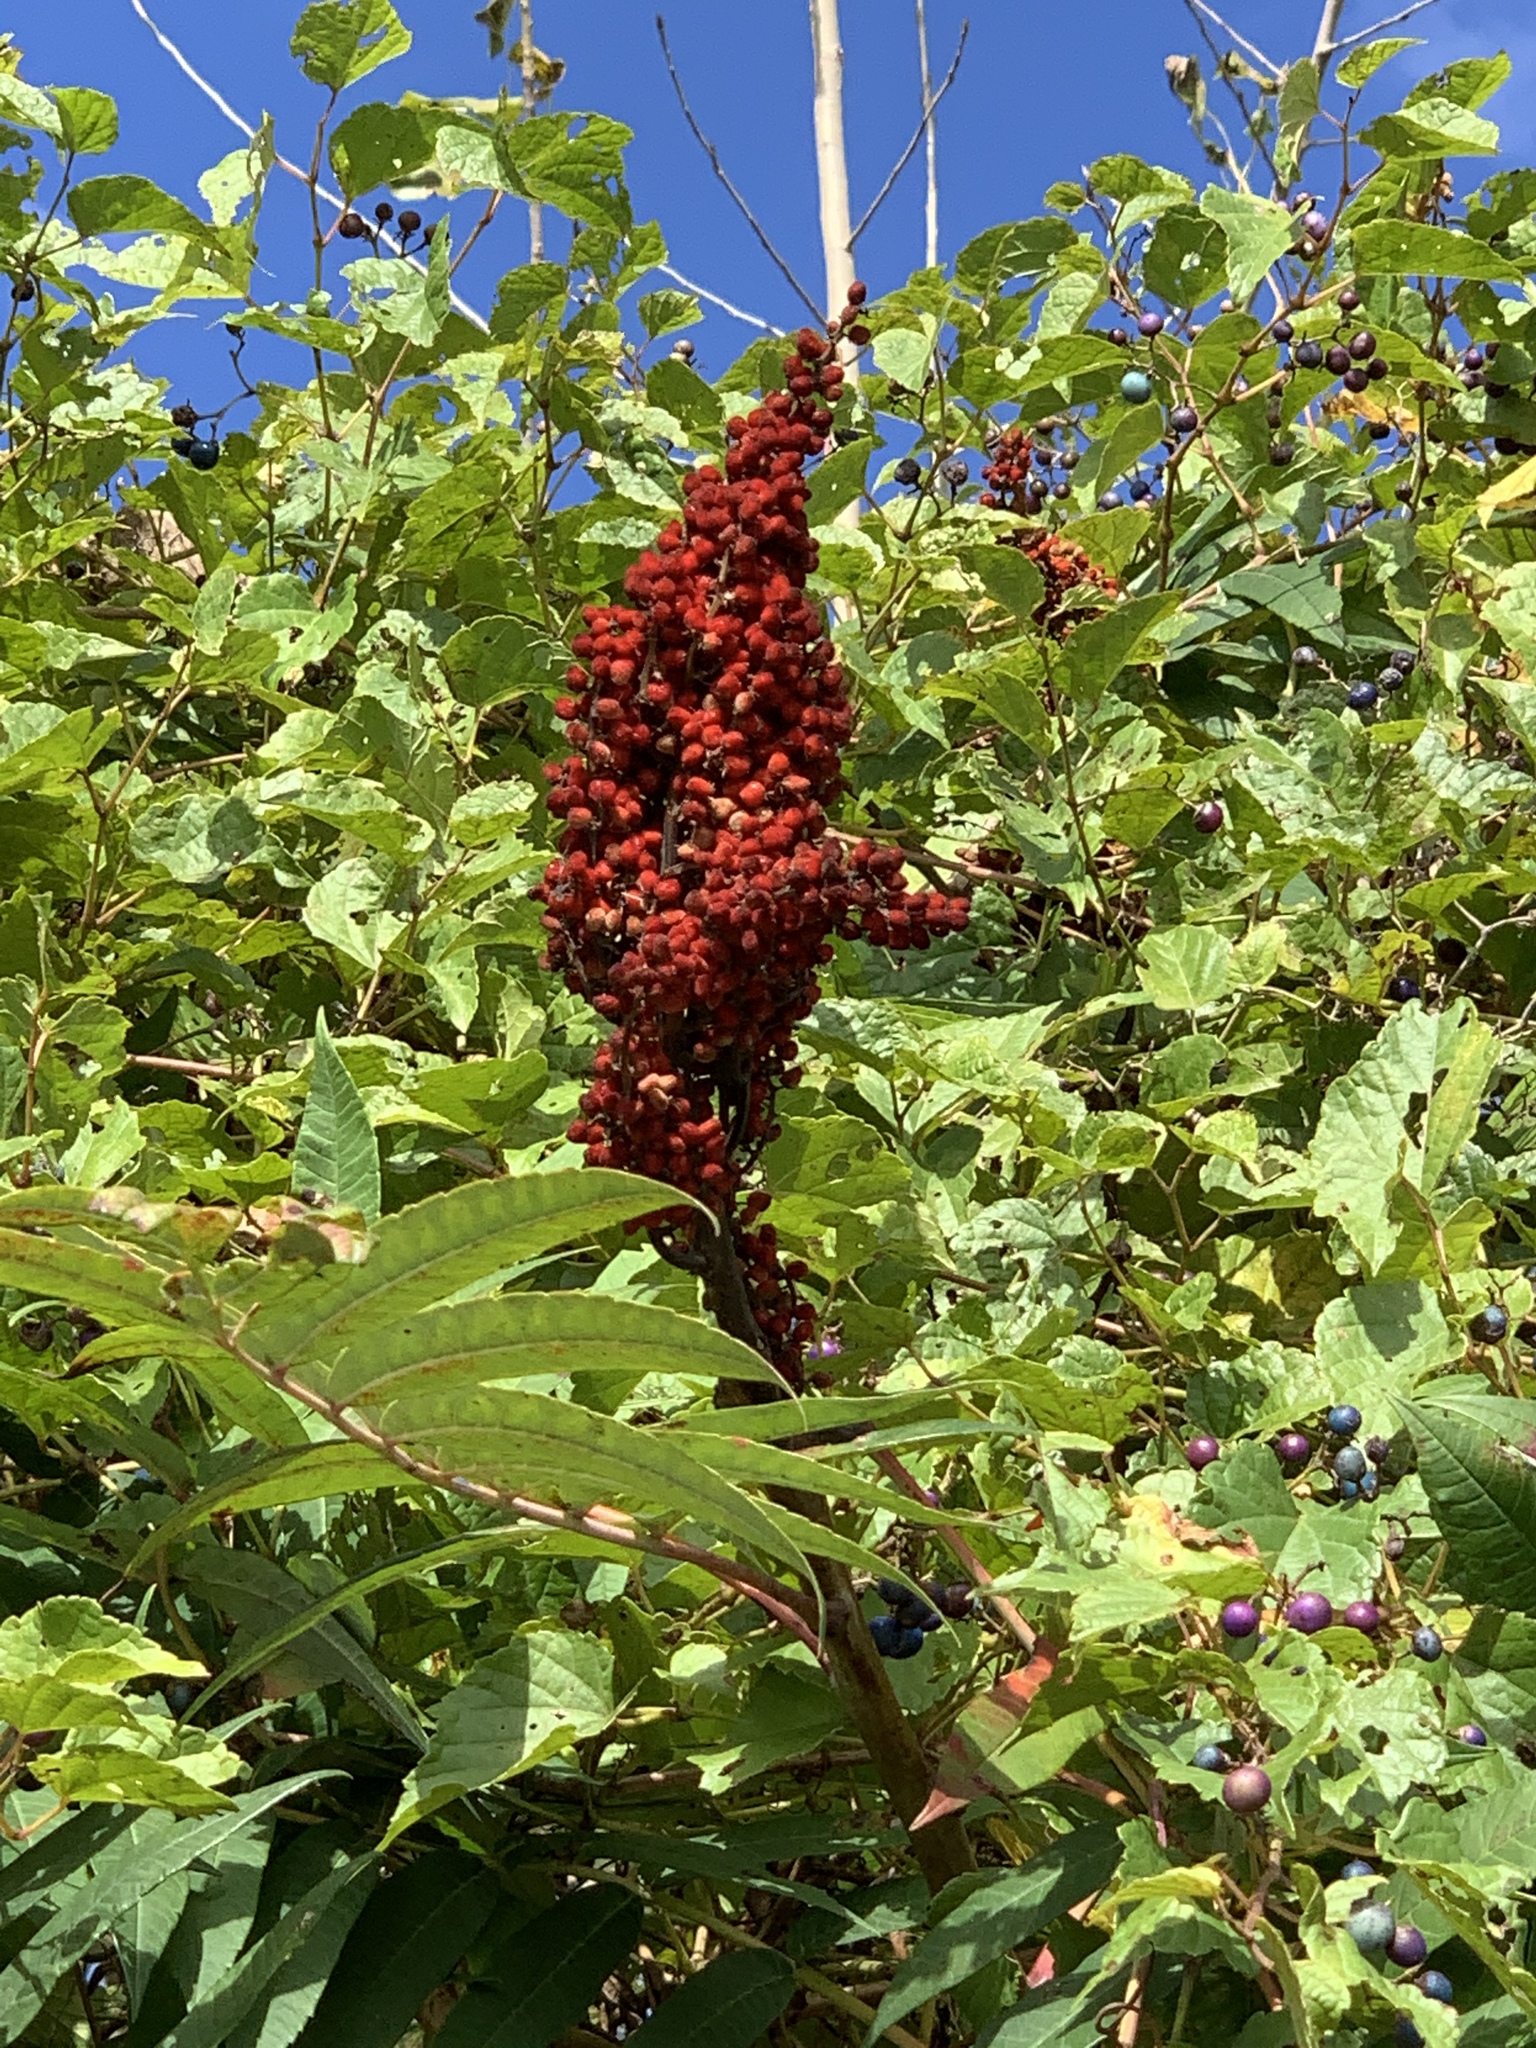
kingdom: Plantae
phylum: Tracheophyta
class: Magnoliopsida
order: Sapindales
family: Anacardiaceae
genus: Rhus
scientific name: Rhus glabra
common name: Scarlet sumac
